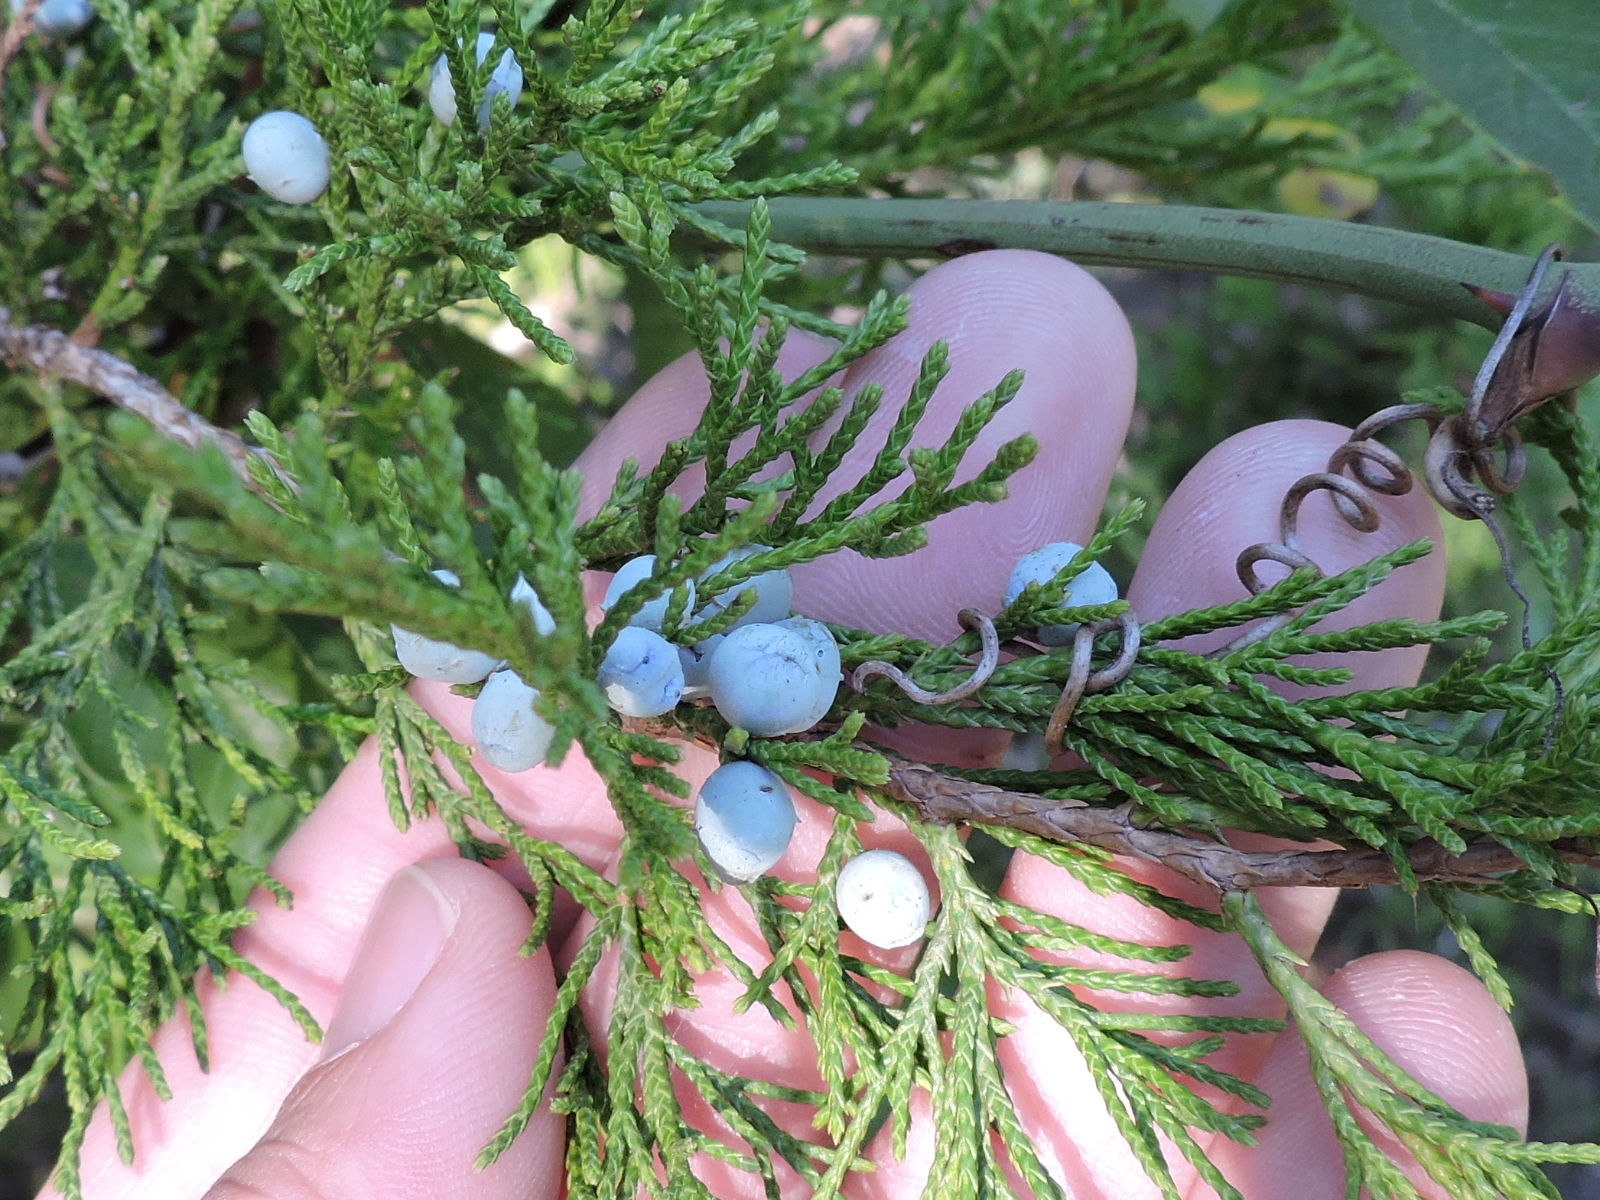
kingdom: Plantae
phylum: Tracheophyta
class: Pinopsida
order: Pinales
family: Cupressaceae
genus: Juniperus
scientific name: Juniperus virginiana
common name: Red juniper
